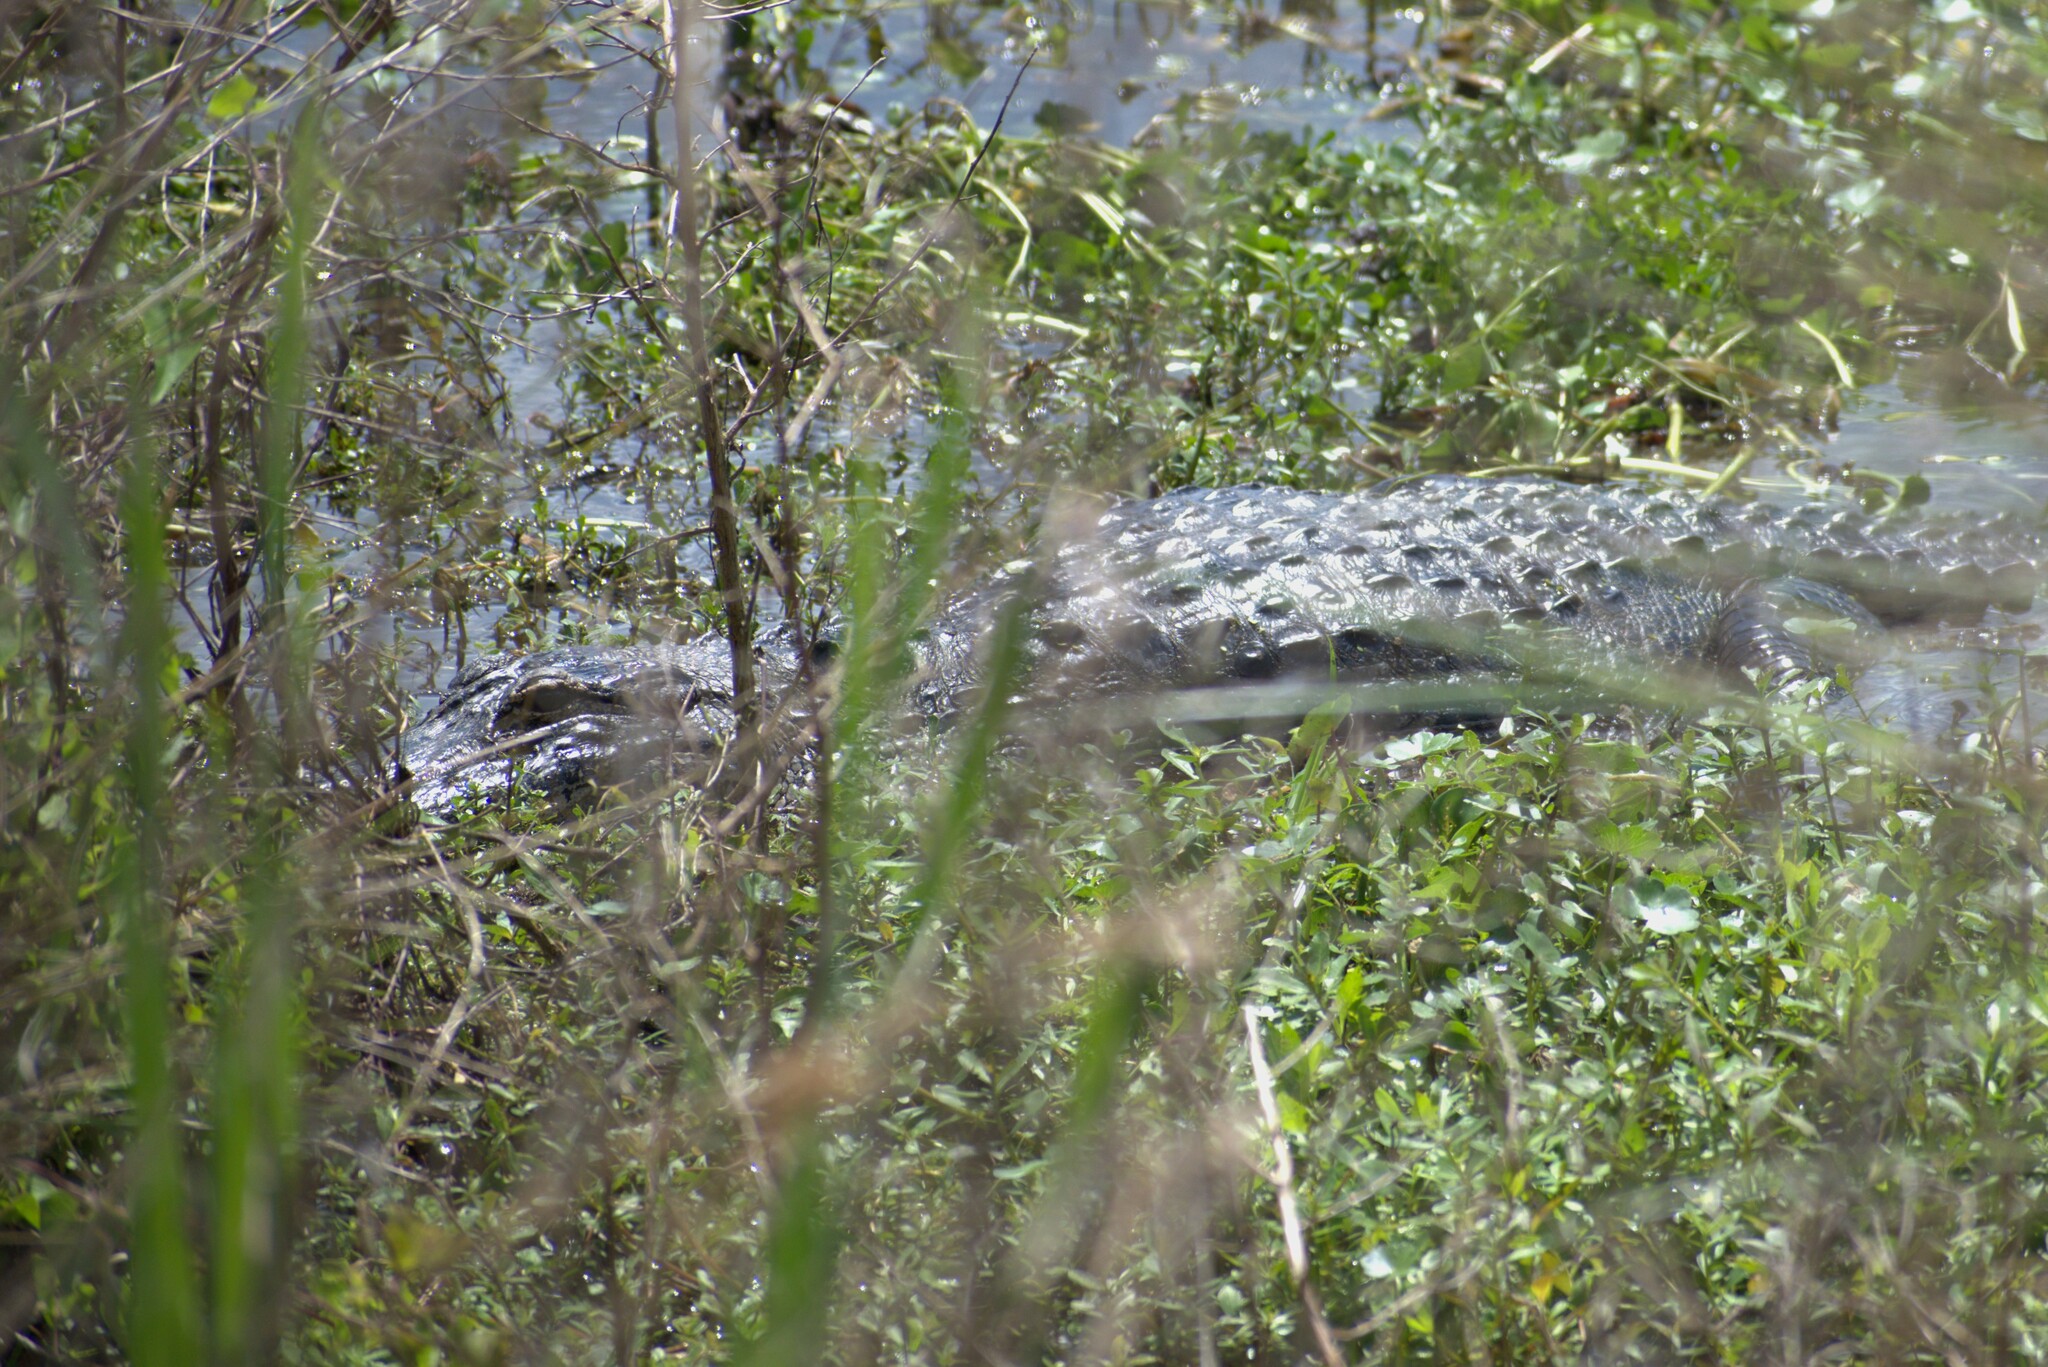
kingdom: Animalia
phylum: Chordata
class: Crocodylia
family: Alligatoridae
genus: Alligator
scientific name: Alligator mississippiensis
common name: American alligator
